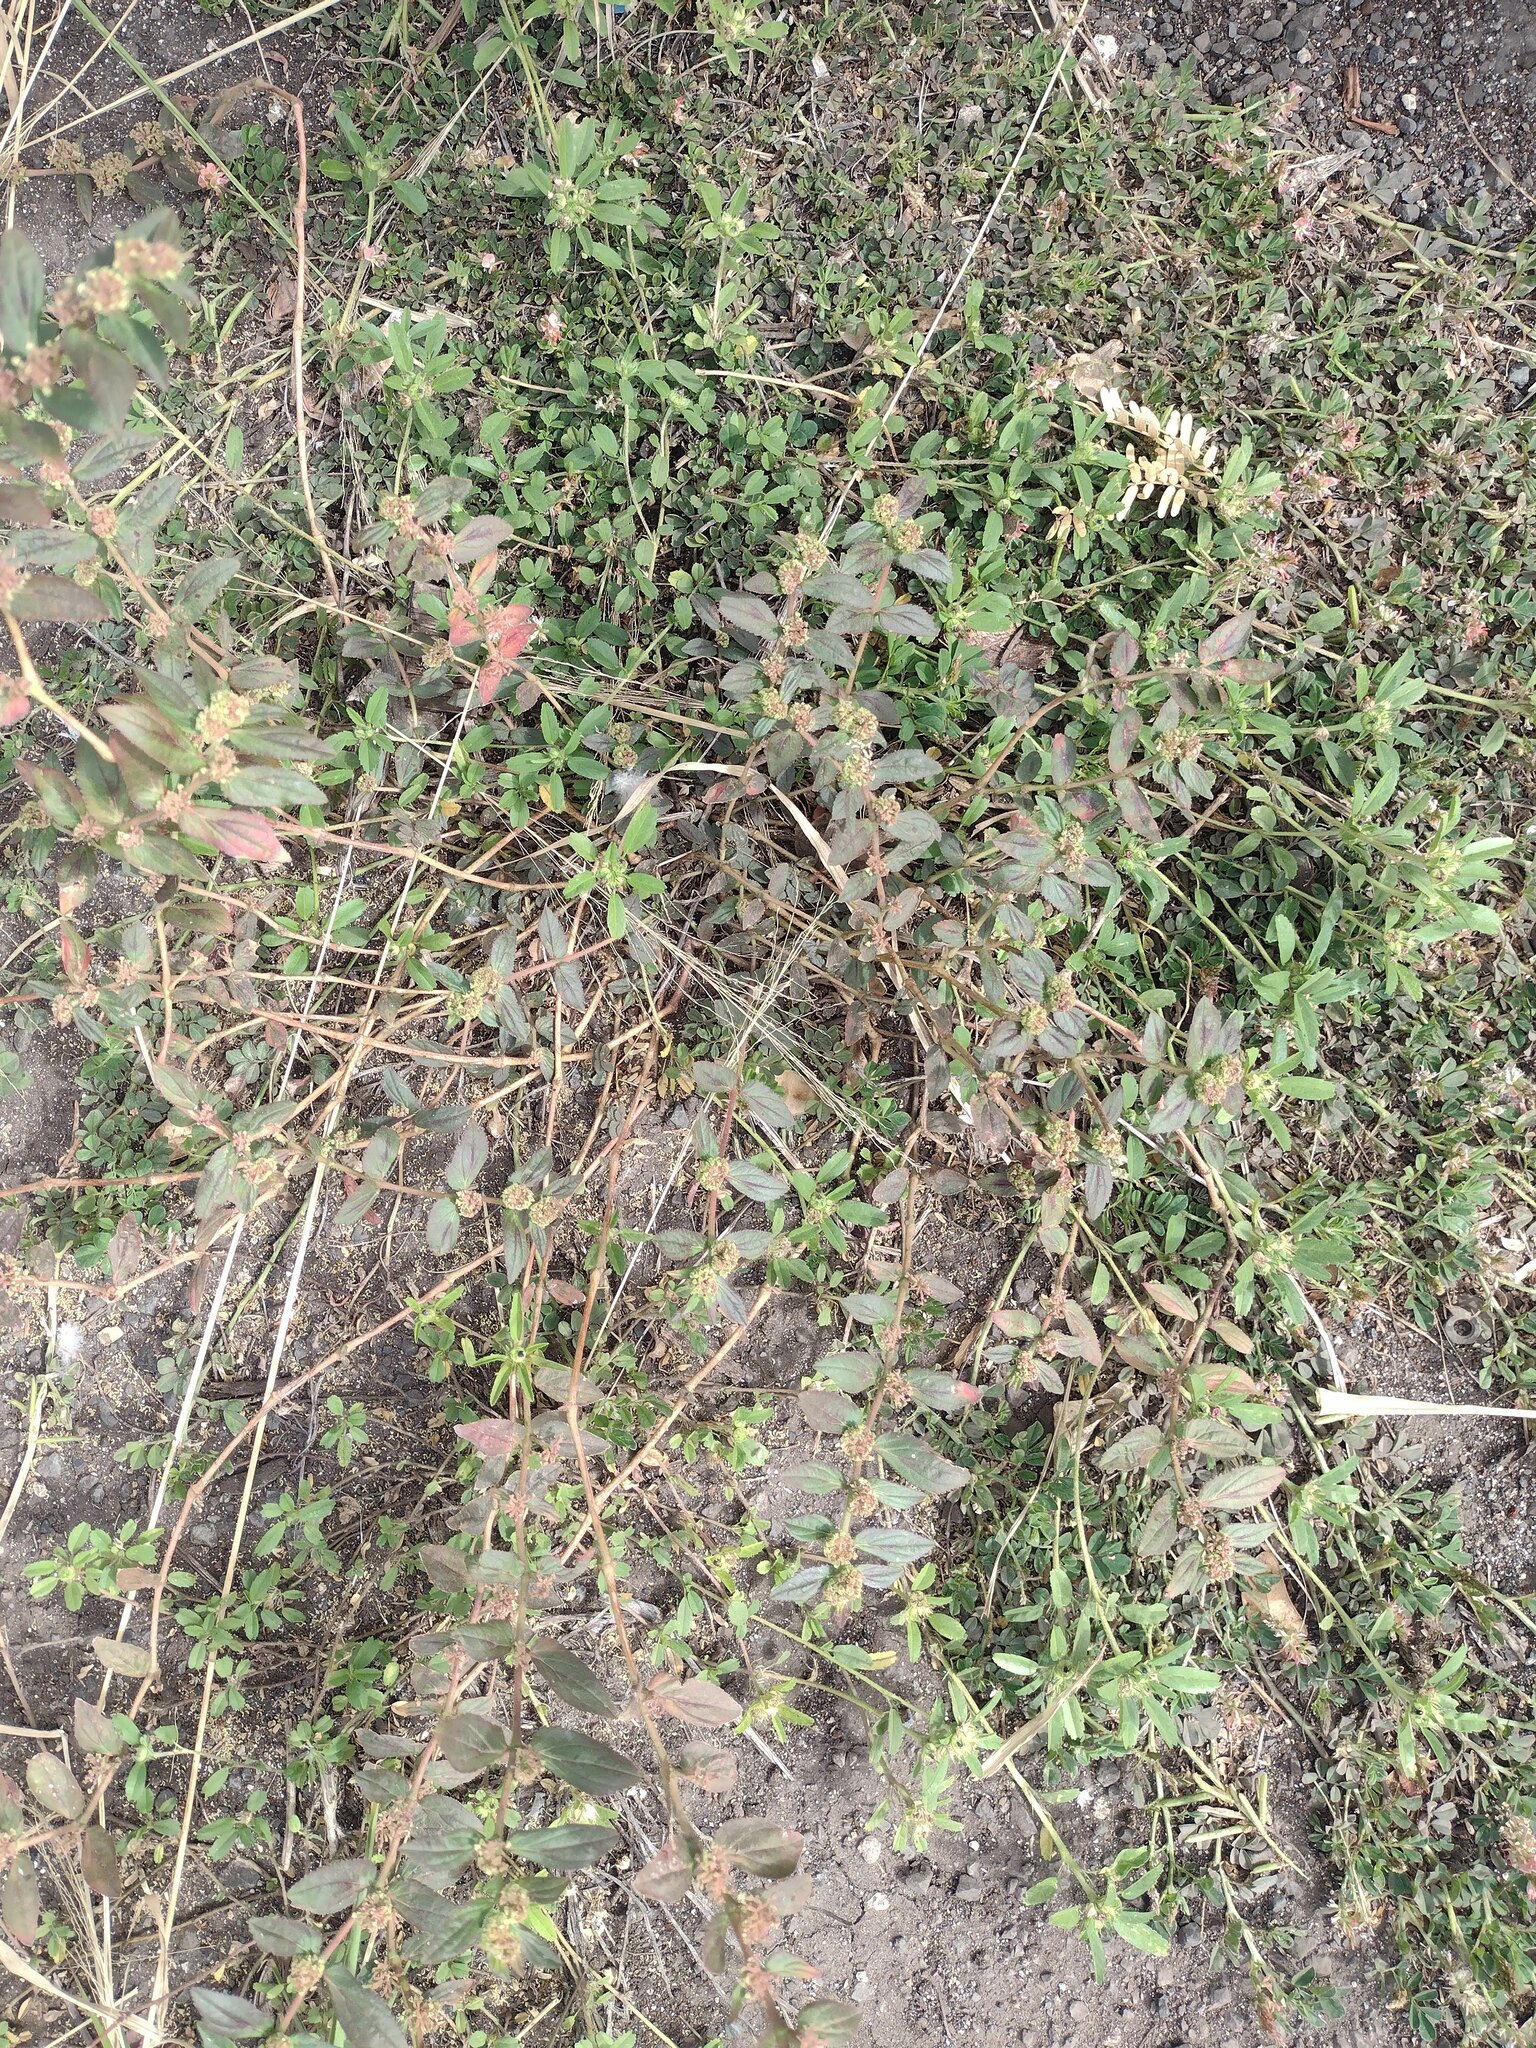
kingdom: Plantae
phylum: Tracheophyta
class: Magnoliopsida
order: Malpighiales
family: Euphorbiaceae
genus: Euphorbia
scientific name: Euphorbia hirta
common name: Pillpod sandmat
